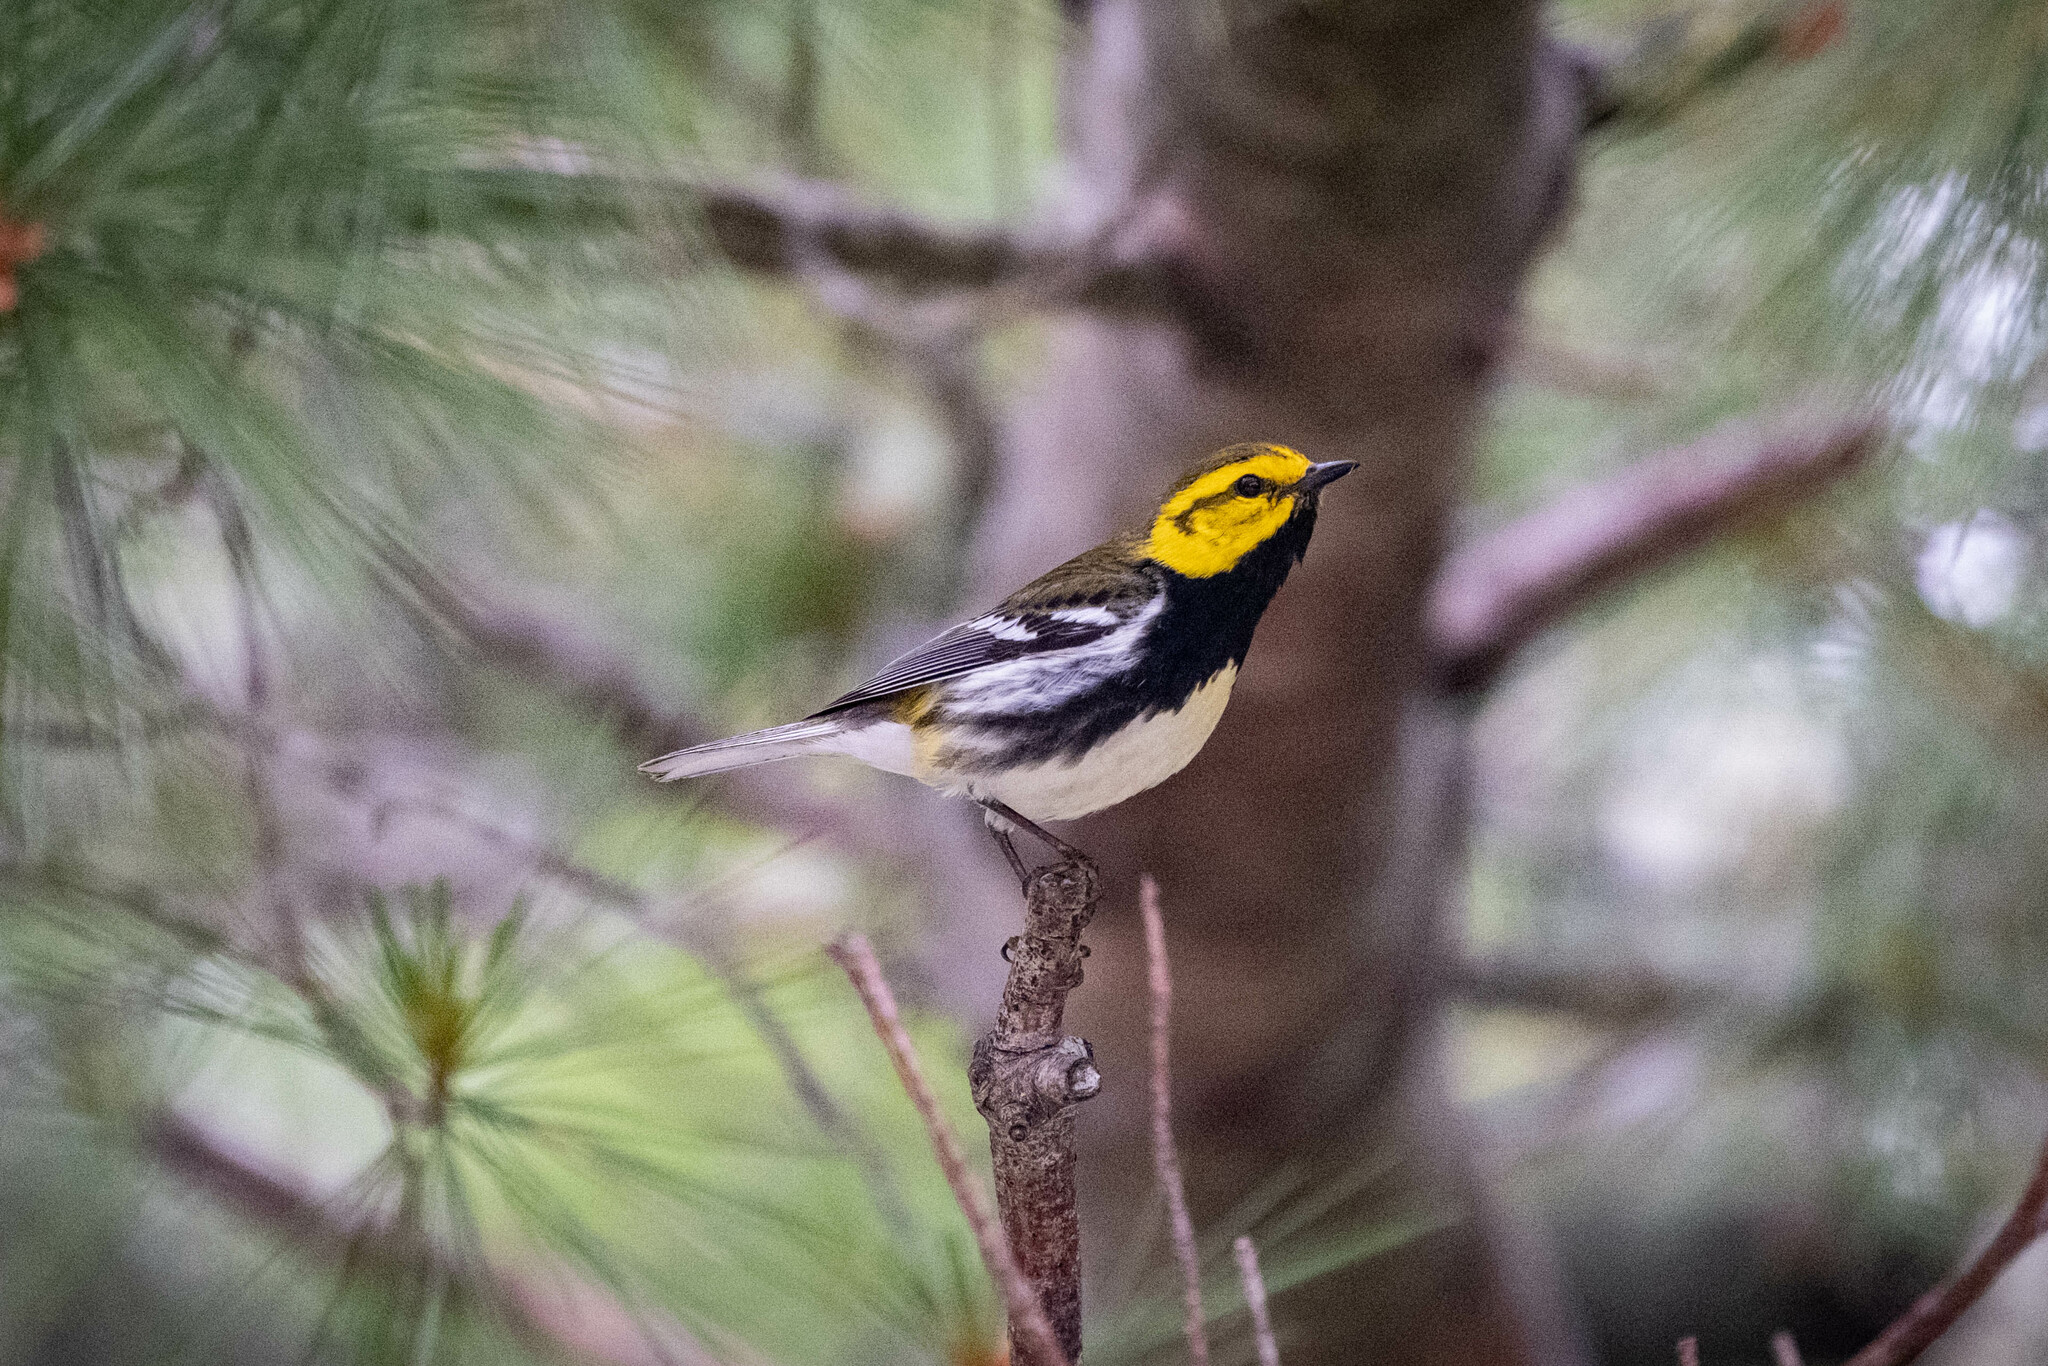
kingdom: Animalia
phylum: Chordata
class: Aves
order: Passeriformes
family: Parulidae
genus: Setophaga
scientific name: Setophaga virens
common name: Black-throated green warbler
